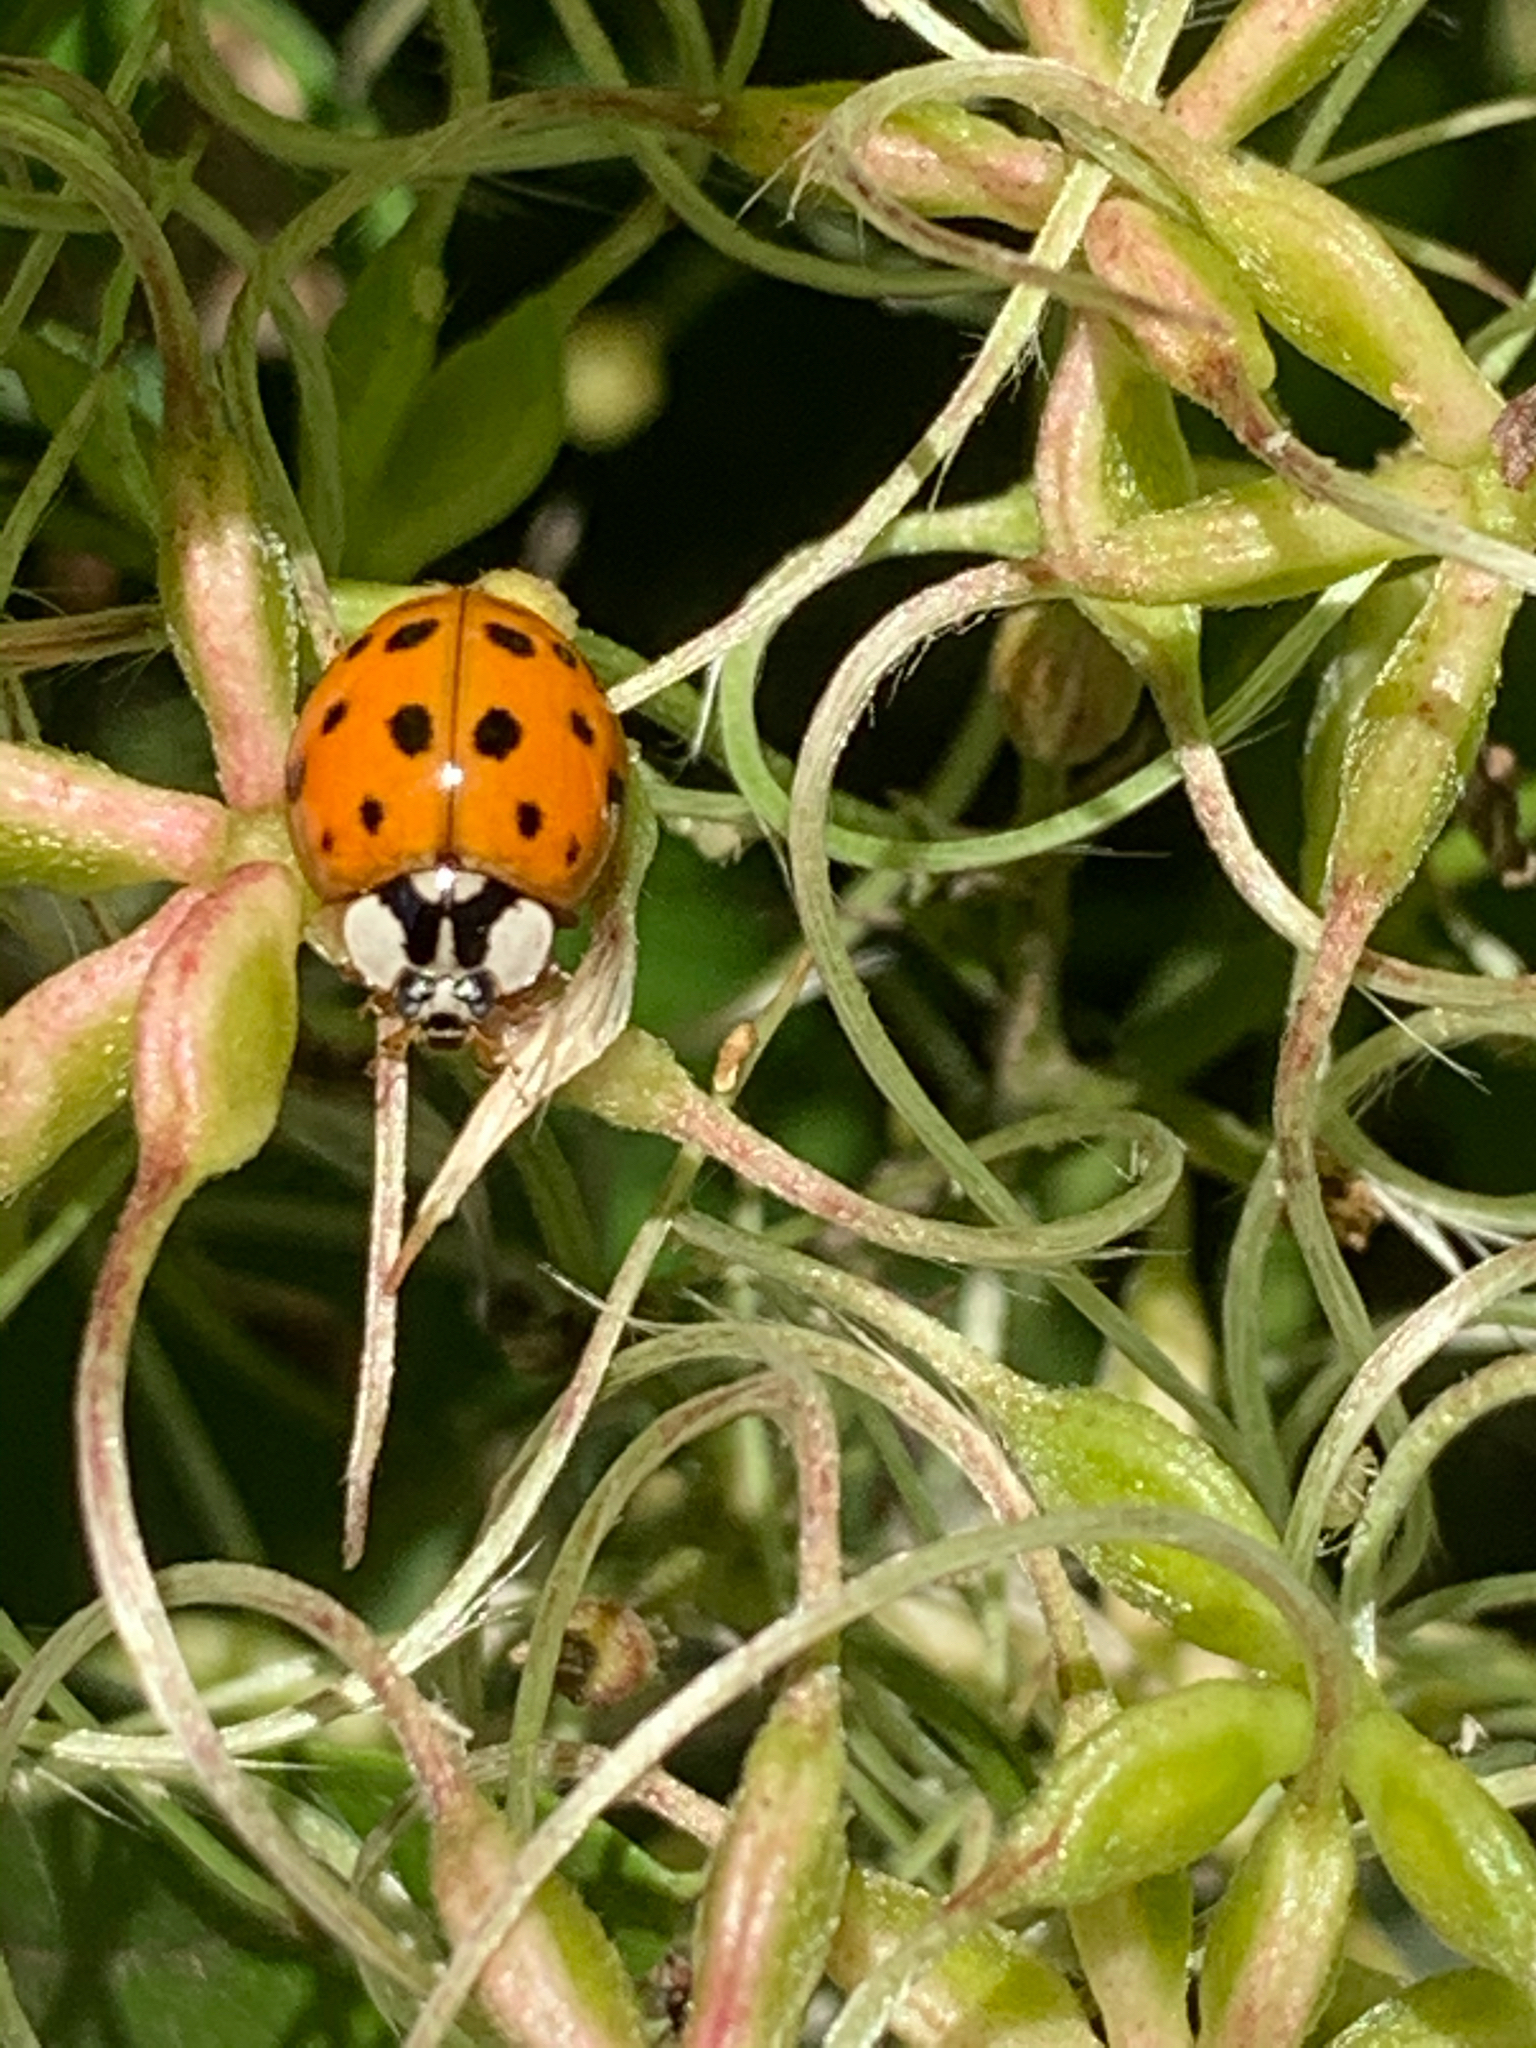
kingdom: Animalia
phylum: Arthropoda
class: Insecta
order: Coleoptera
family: Coccinellidae
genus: Harmonia
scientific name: Harmonia axyridis
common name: Harlequin ladybird
